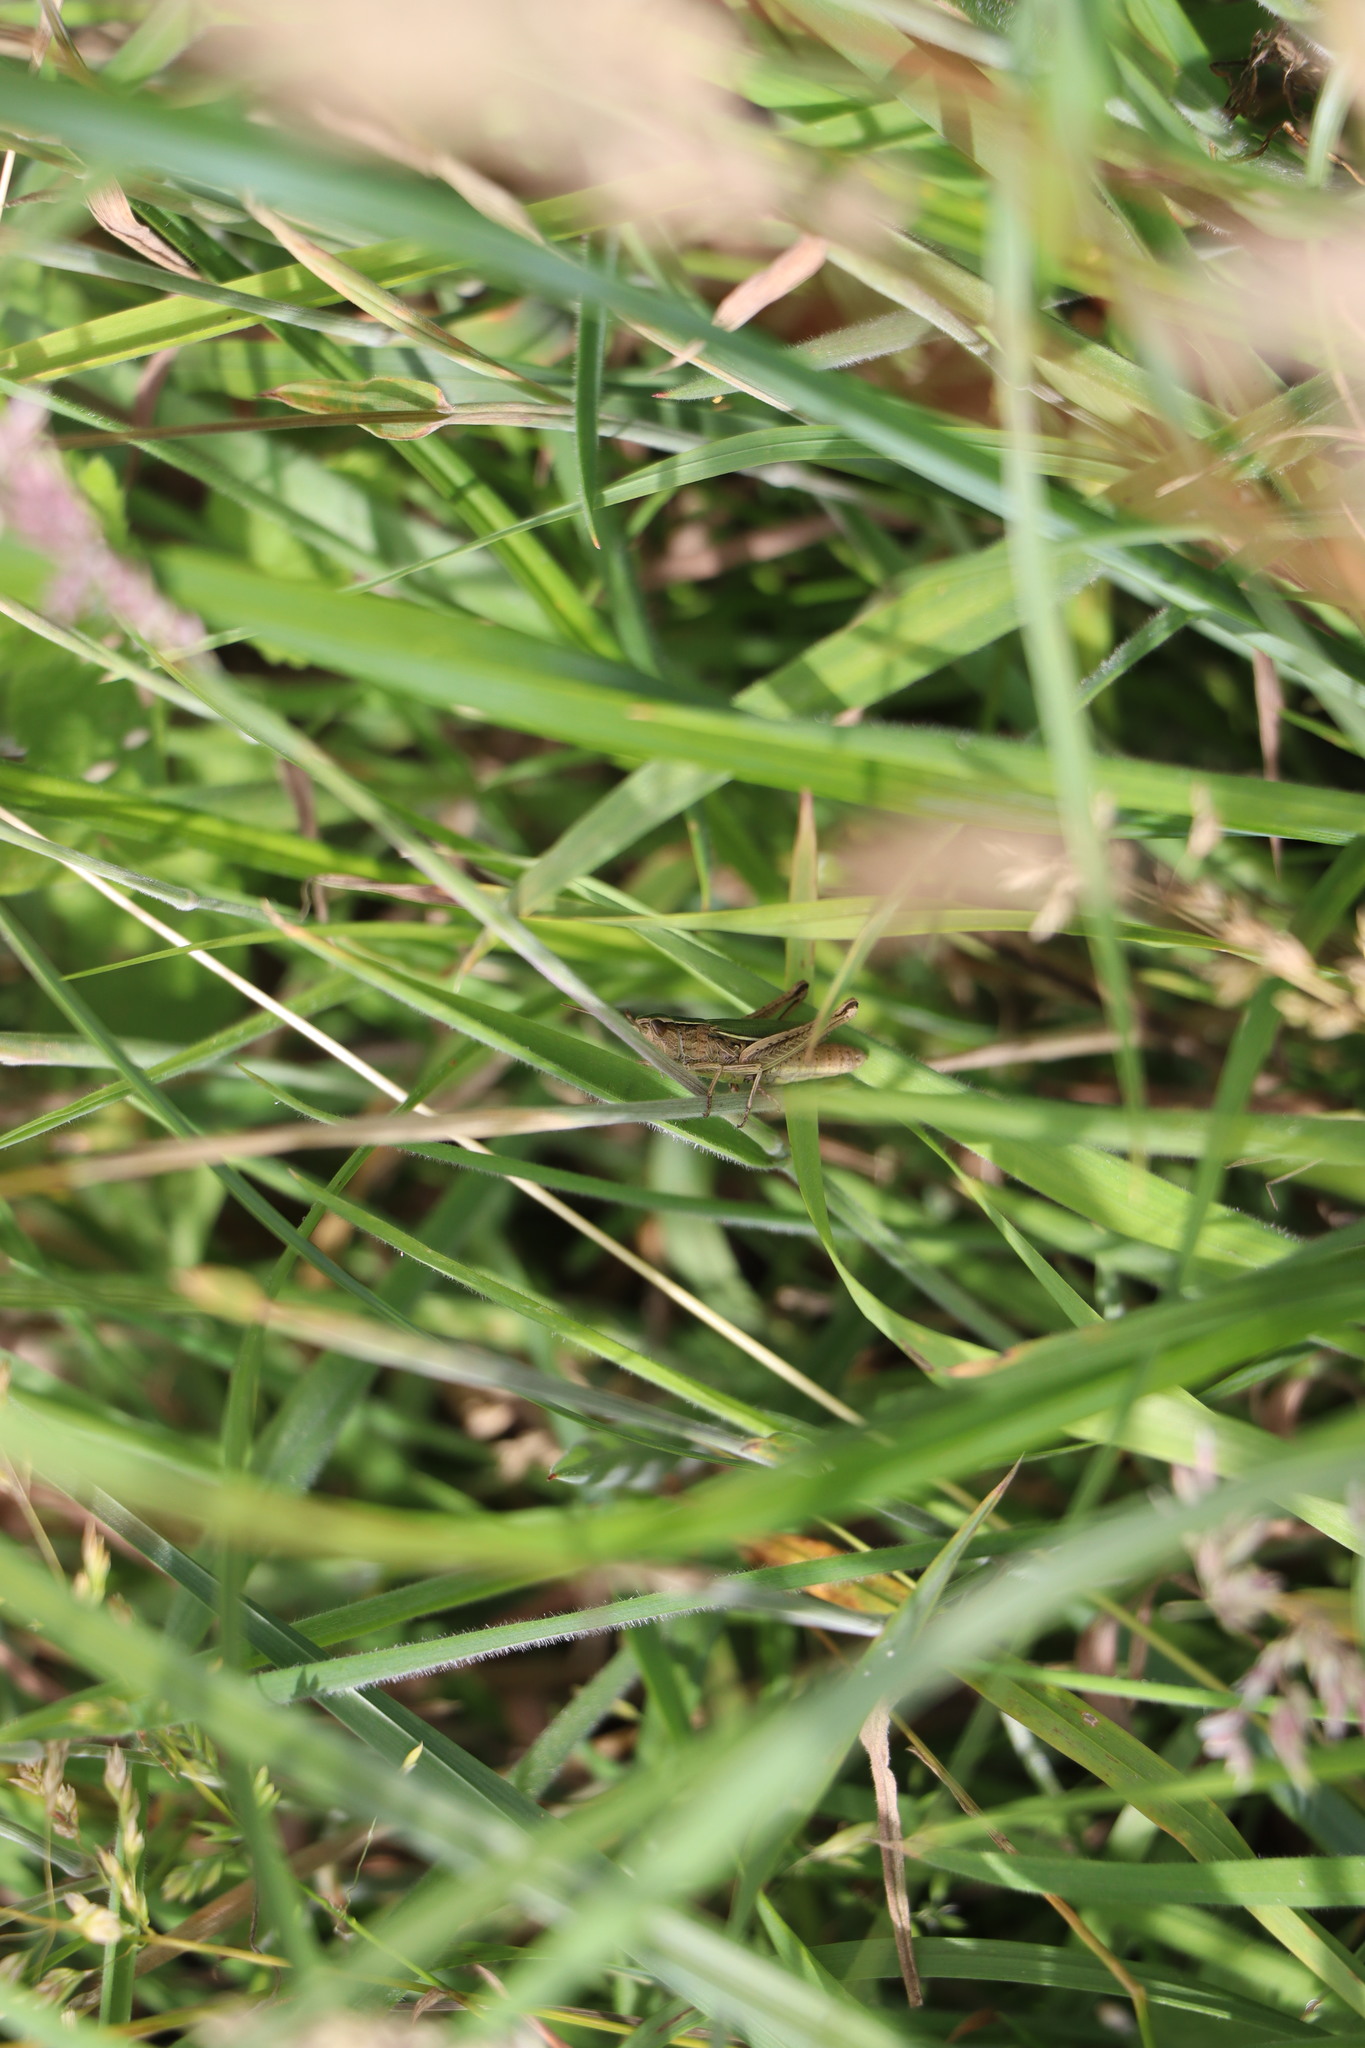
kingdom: Animalia
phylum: Arthropoda
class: Insecta
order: Orthoptera
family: Acrididae
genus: Chorthippus
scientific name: Chorthippus albomarginatus
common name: Lesser marsh grasshopper
